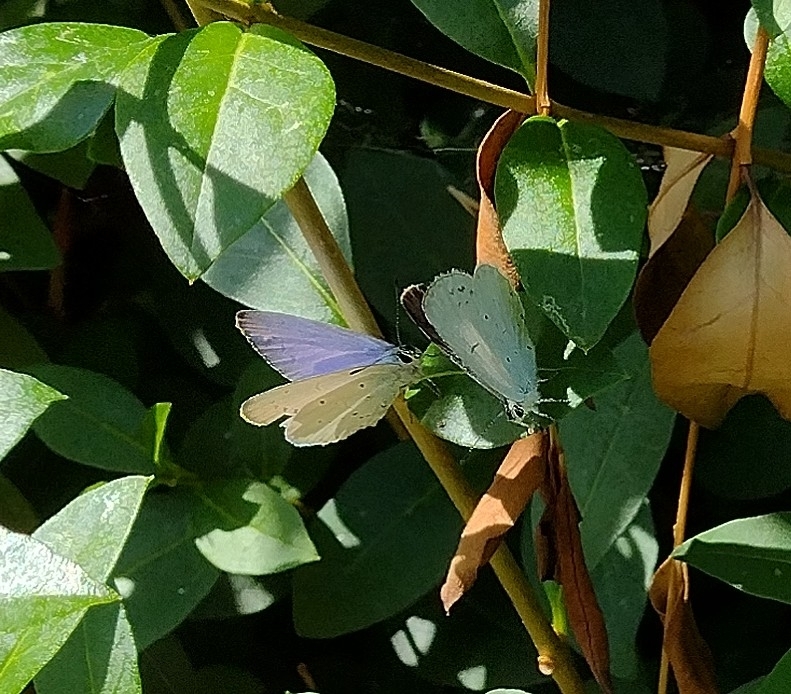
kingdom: Animalia
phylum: Arthropoda
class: Insecta
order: Lepidoptera
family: Lycaenidae
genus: Celastrina
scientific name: Celastrina argiolus
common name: Holly blue
